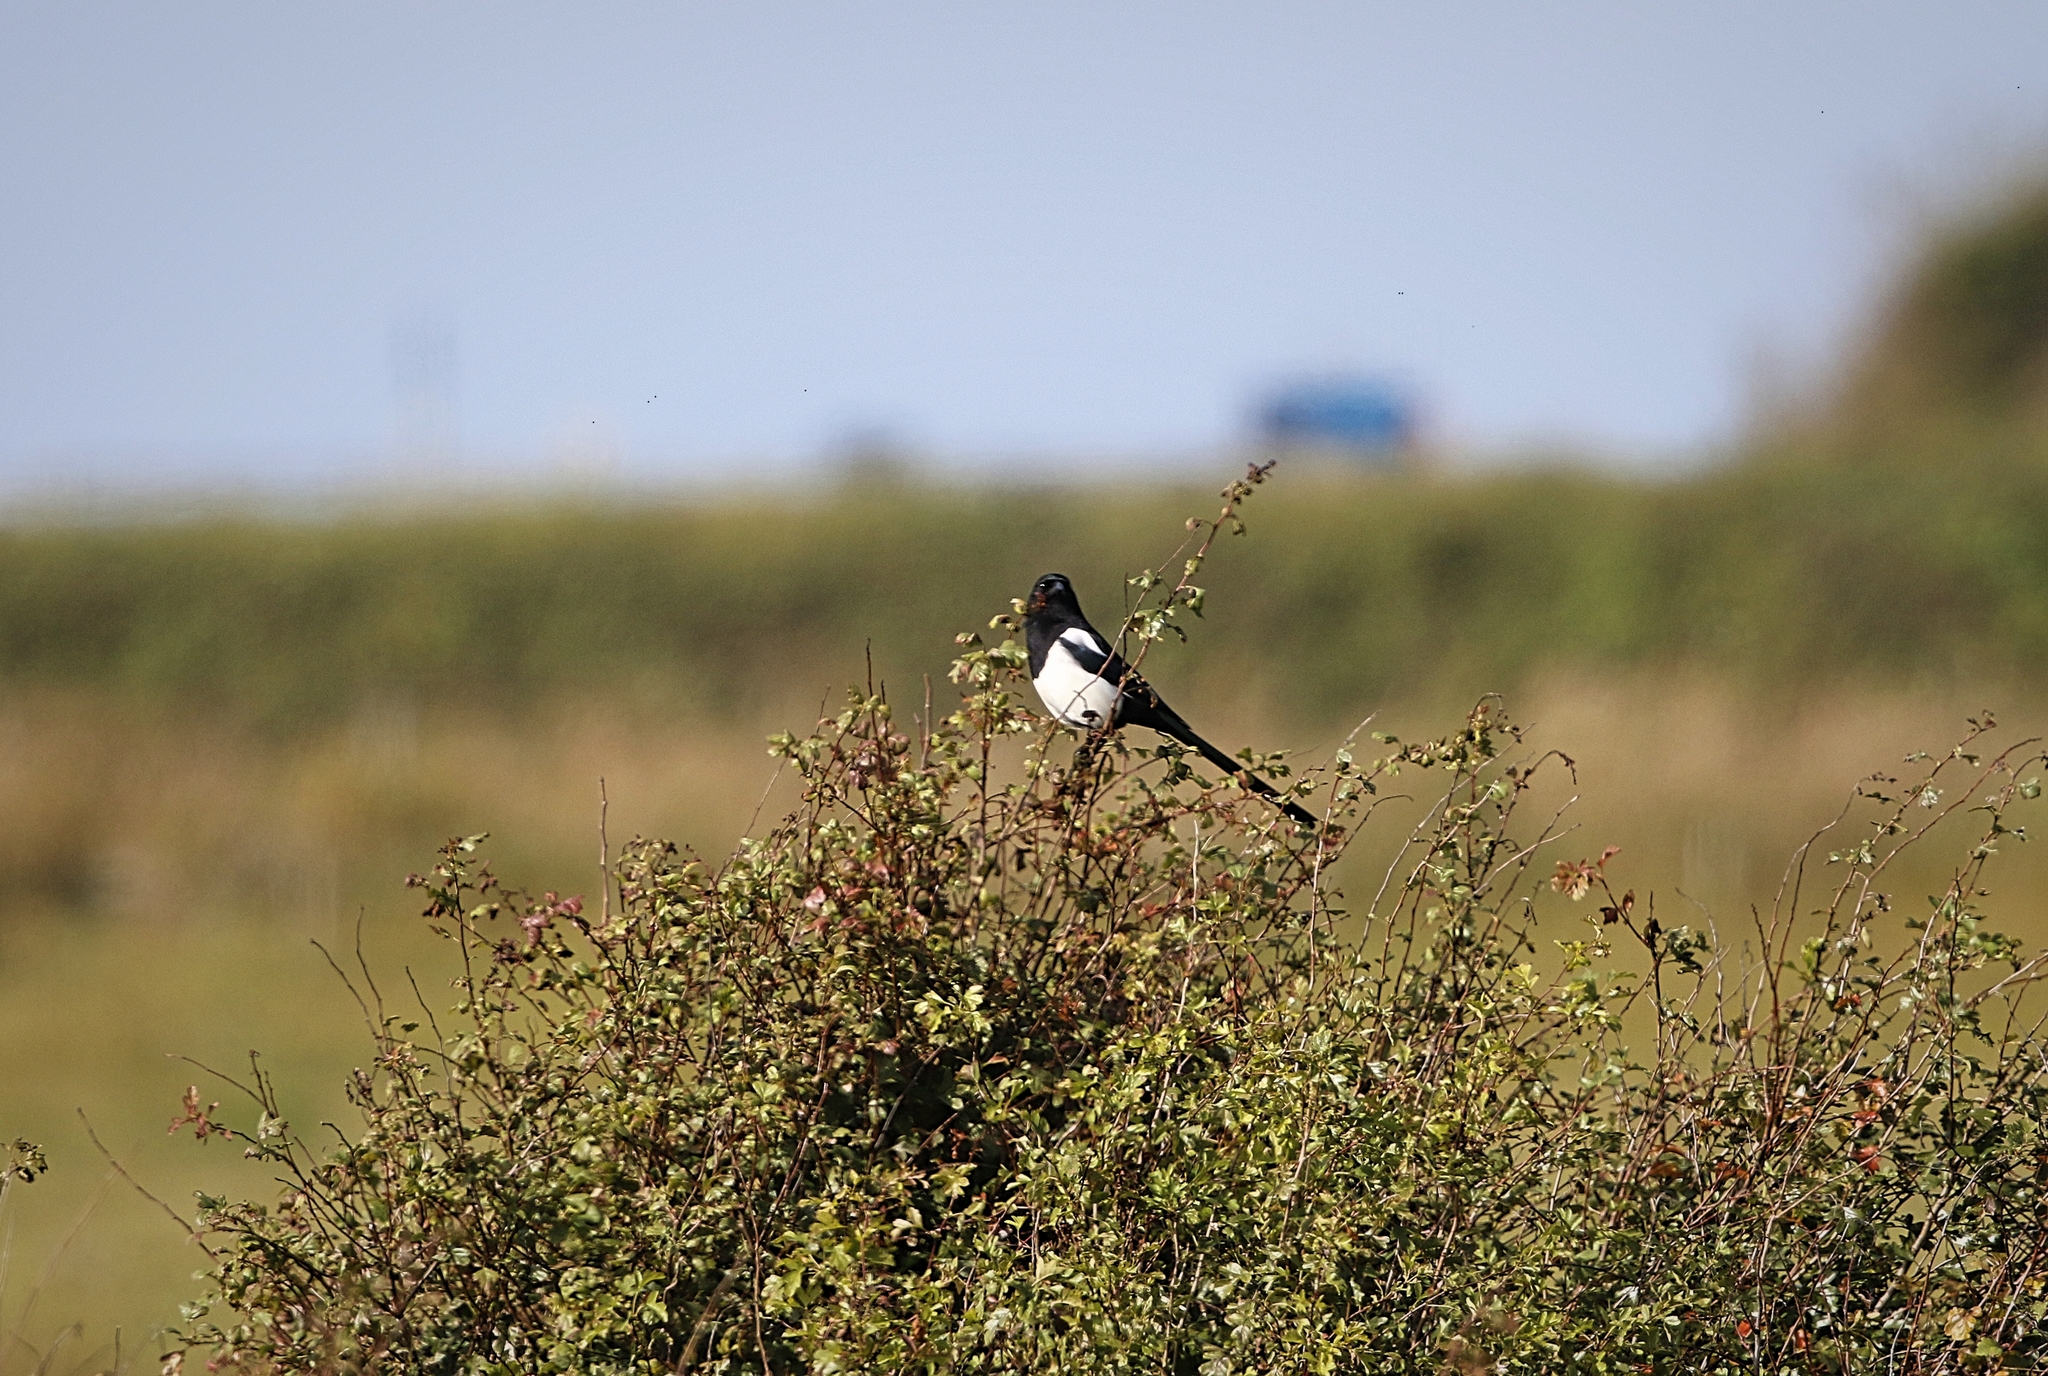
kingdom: Animalia
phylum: Chordata
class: Aves
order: Passeriformes
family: Corvidae
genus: Pica
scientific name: Pica pica
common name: Eurasian magpie
